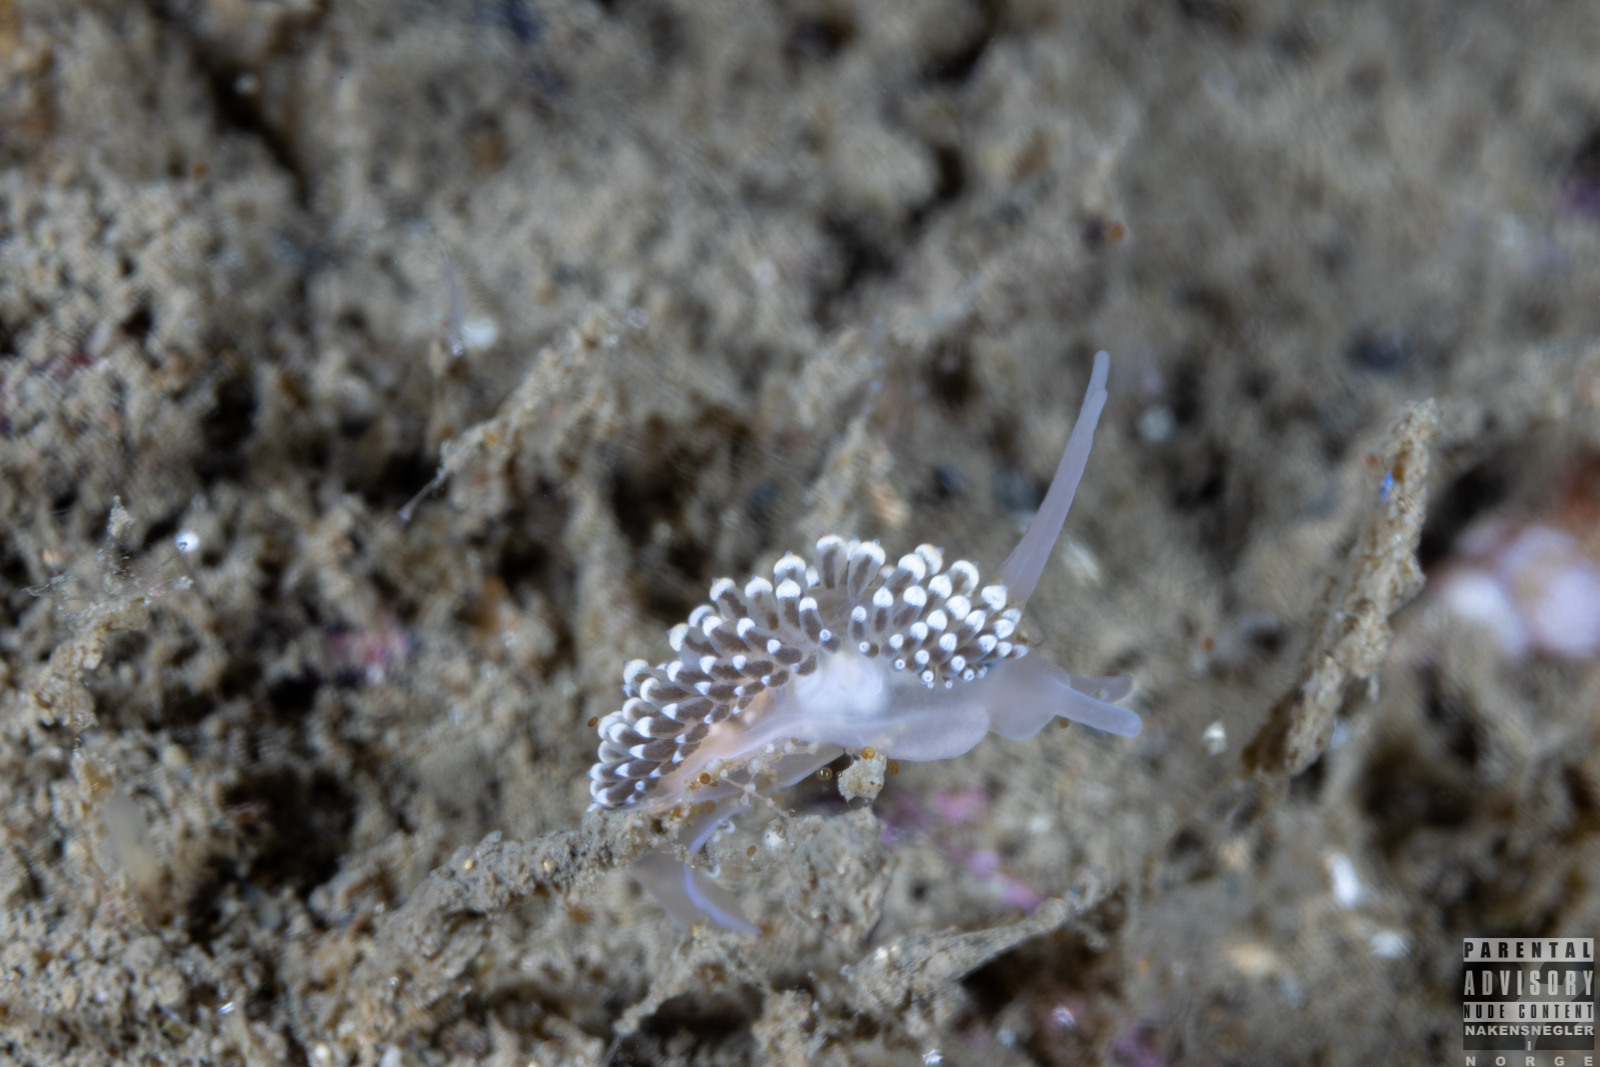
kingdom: Animalia
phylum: Mollusca
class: Gastropoda
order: Nudibranchia
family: Eubranchidae
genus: Eubranchus
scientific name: Eubranchus tricolor
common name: Painted balloon aeolis
